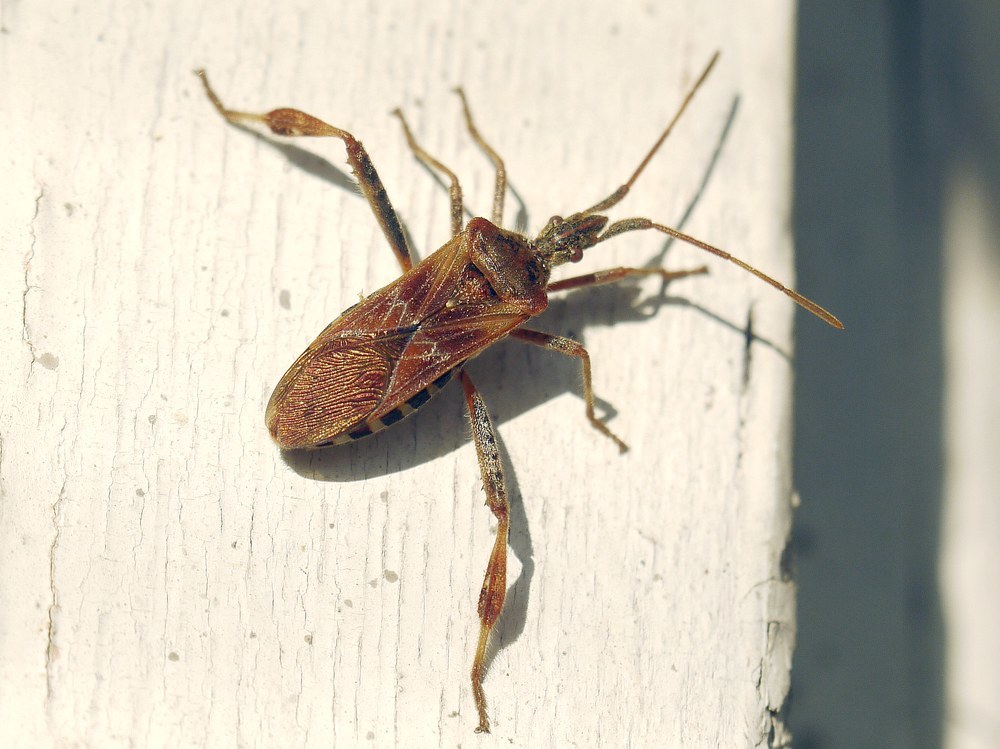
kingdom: Animalia
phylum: Arthropoda
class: Insecta
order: Hemiptera
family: Coreidae
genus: Leptoglossus
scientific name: Leptoglossus occidentalis
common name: Western conifer-seed bug
